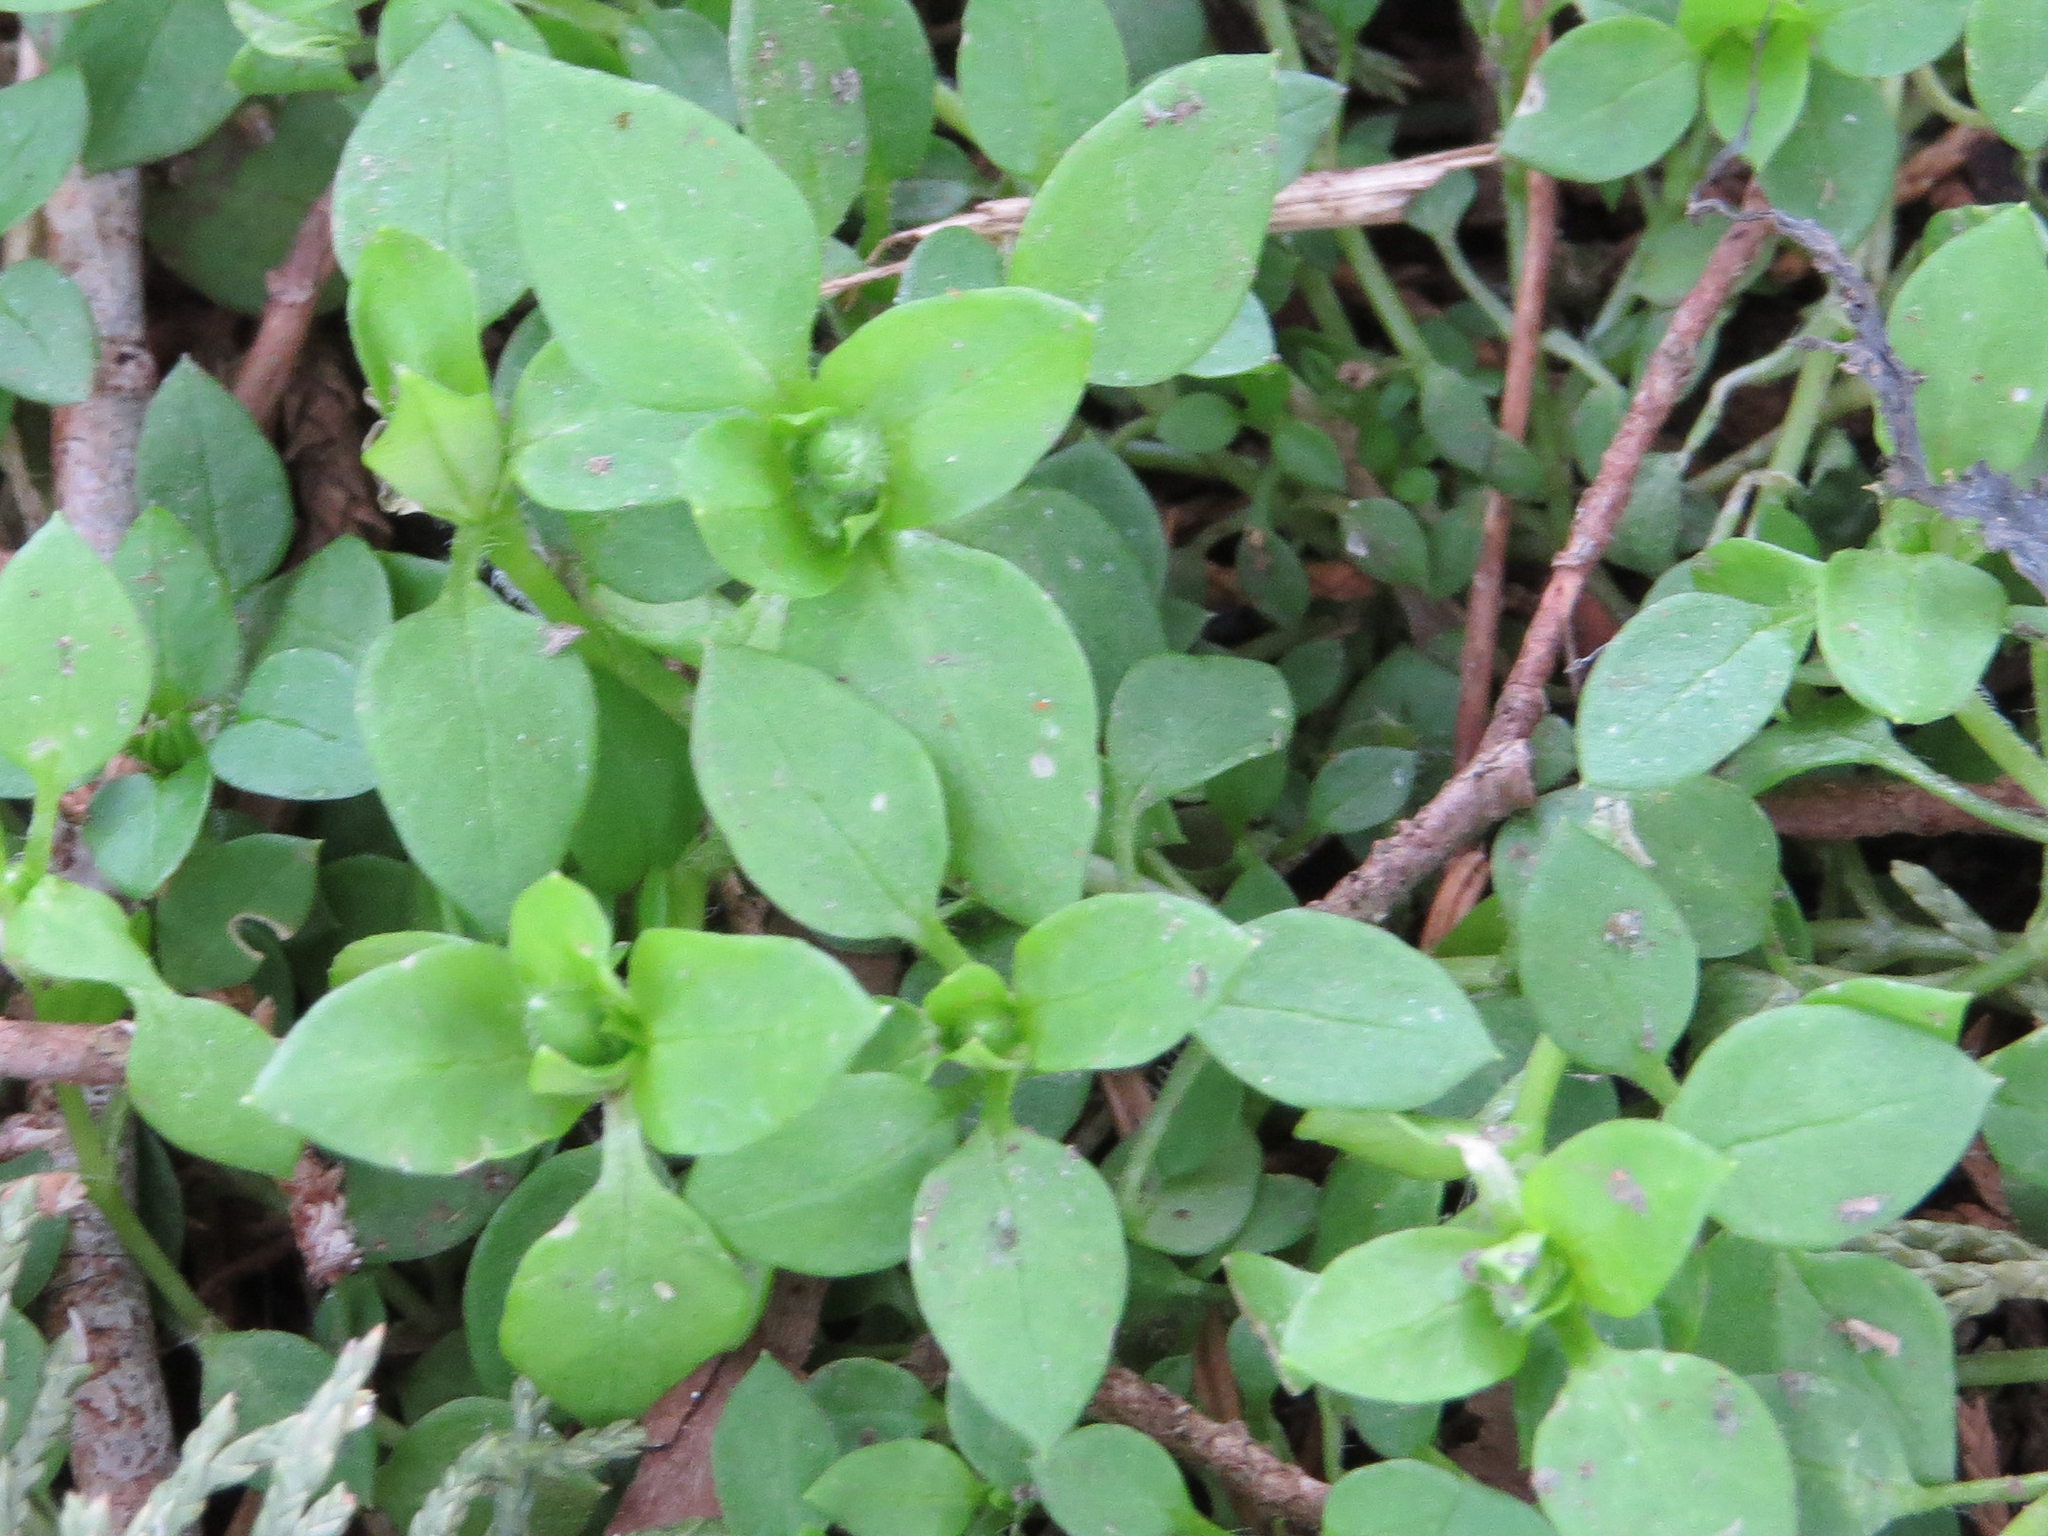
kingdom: Plantae
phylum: Tracheophyta
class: Magnoliopsida
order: Caryophyllales
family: Caryophyllaceae
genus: Stellaria
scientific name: Stellaria media
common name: Common chickweed
